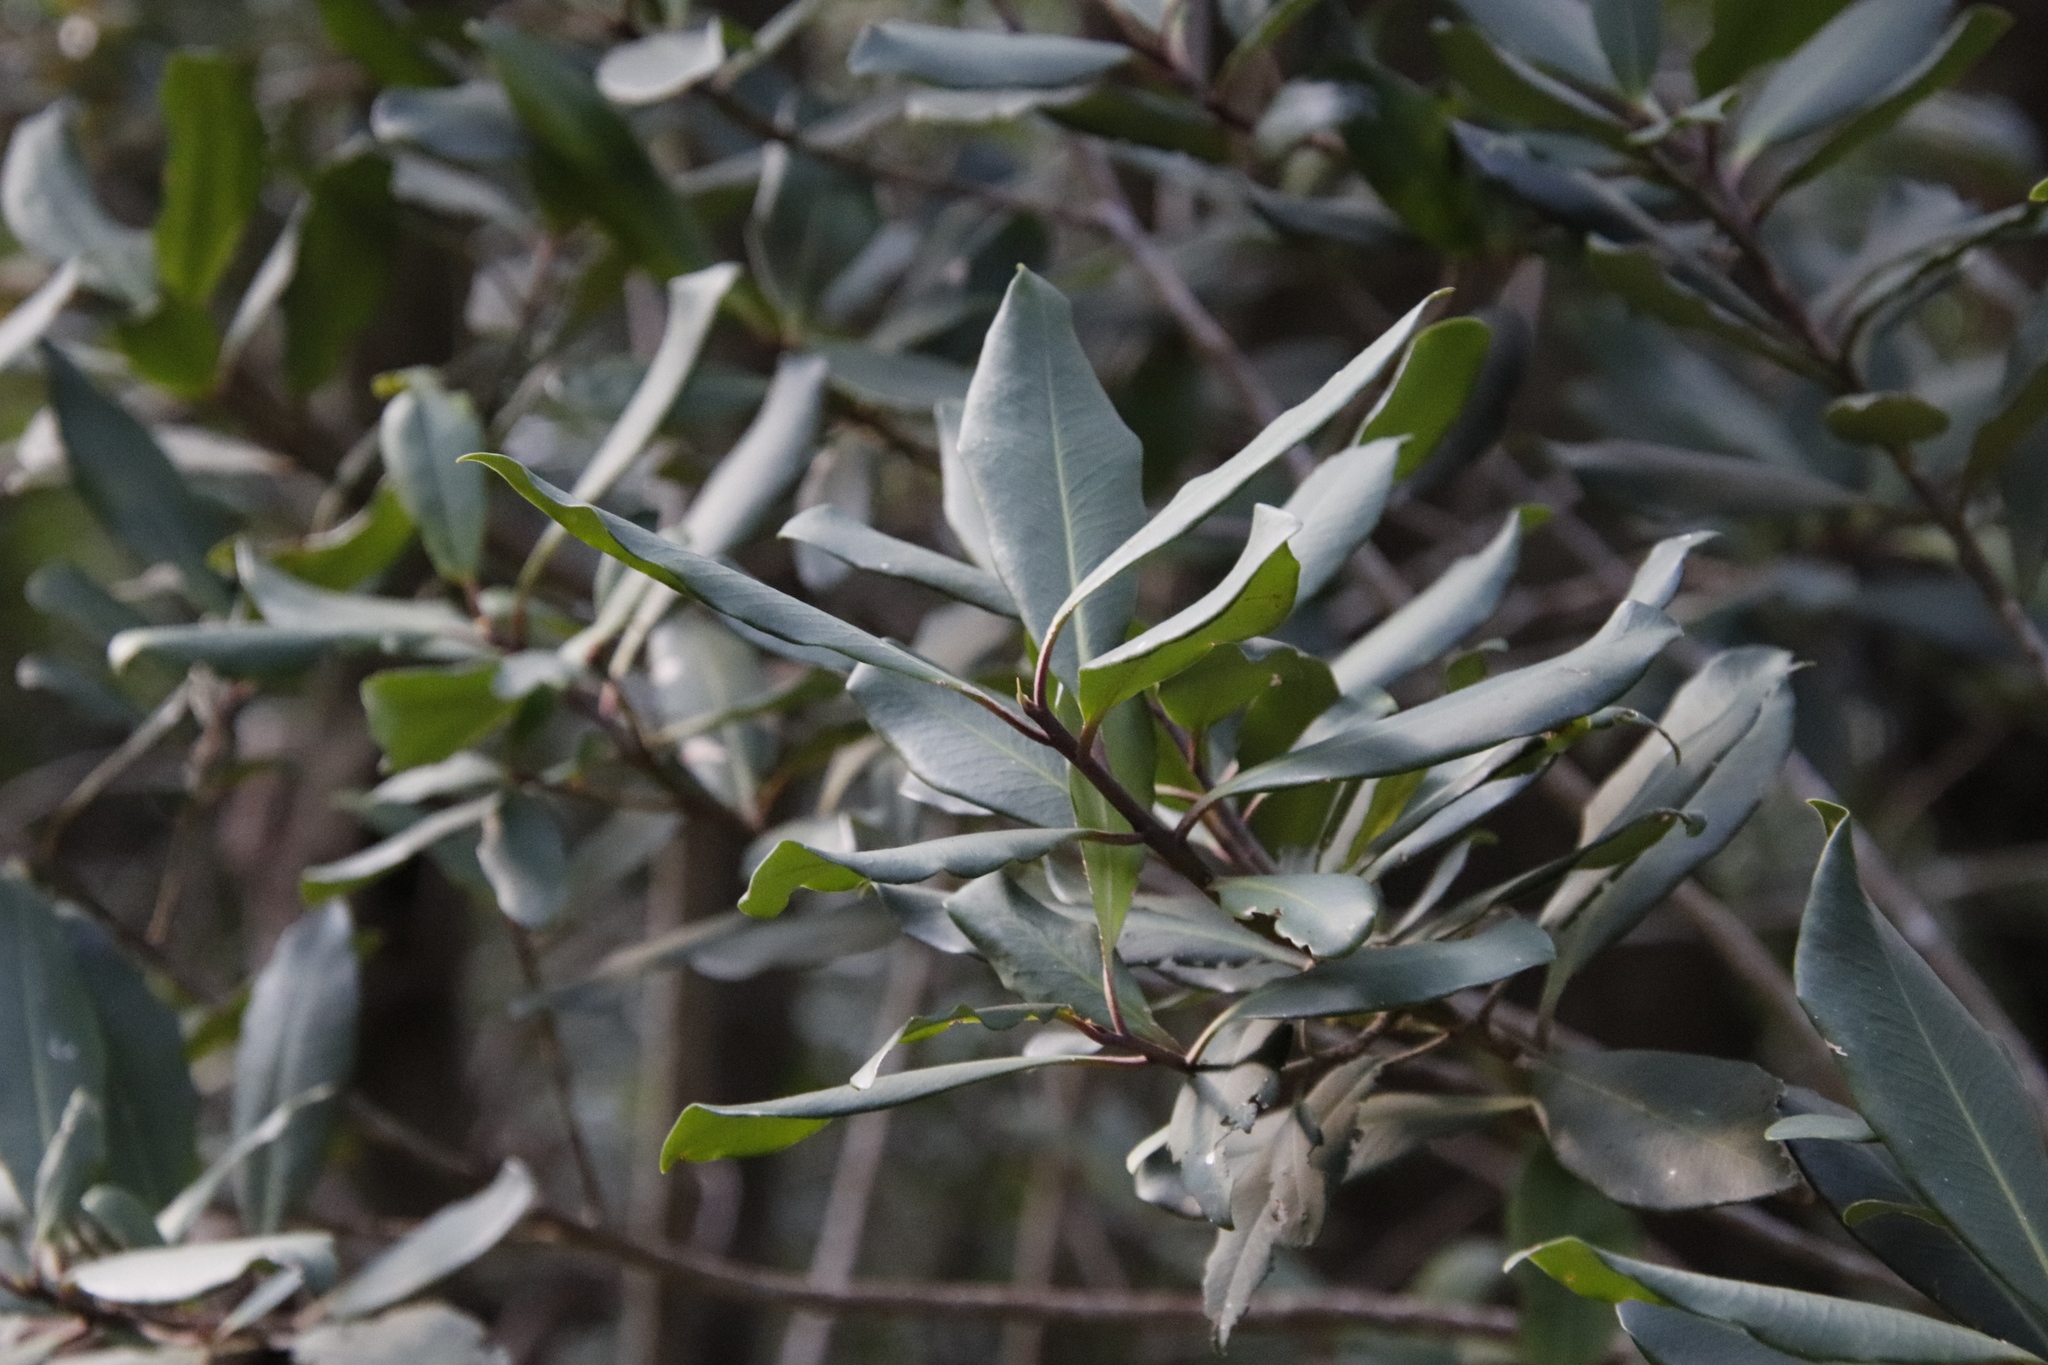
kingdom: Plantae
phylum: Tracheophyta
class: Magnoliopsida
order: Ericales
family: Primulaceae
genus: Myrsine
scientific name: Myrsine melanophloeos
